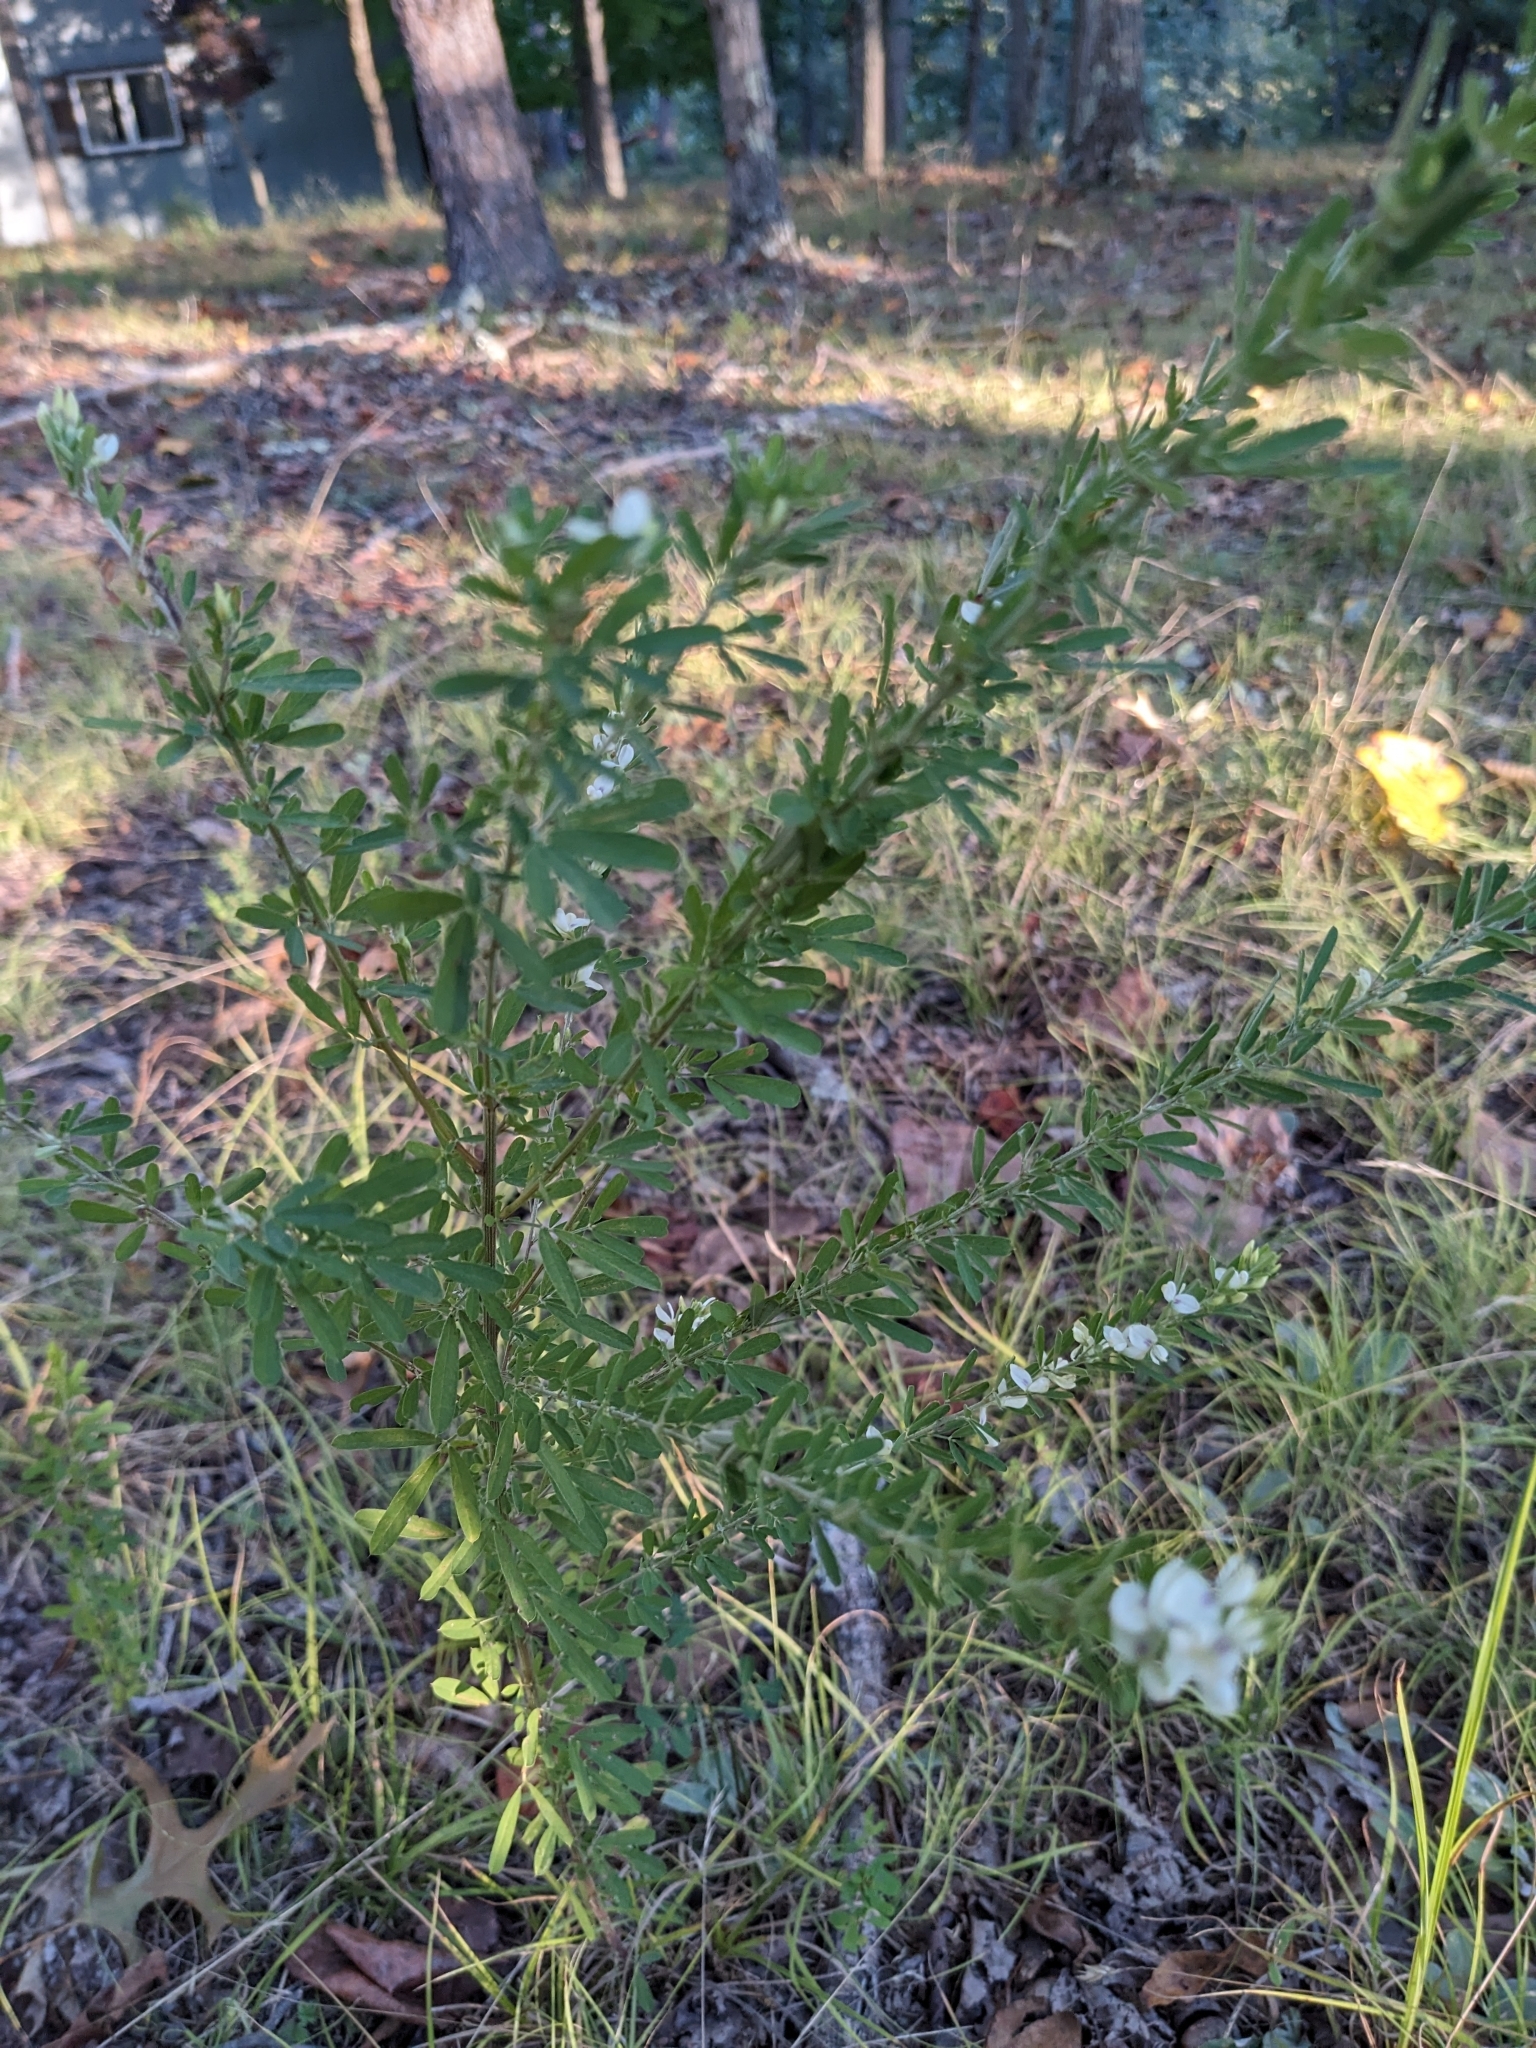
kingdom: Plantae
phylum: Tracheophyta
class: Magnoliopsida
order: Fabales
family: Fabaceae
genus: Lespedeza
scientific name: Lespedeza cuneata
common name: Chinese bush-clover
